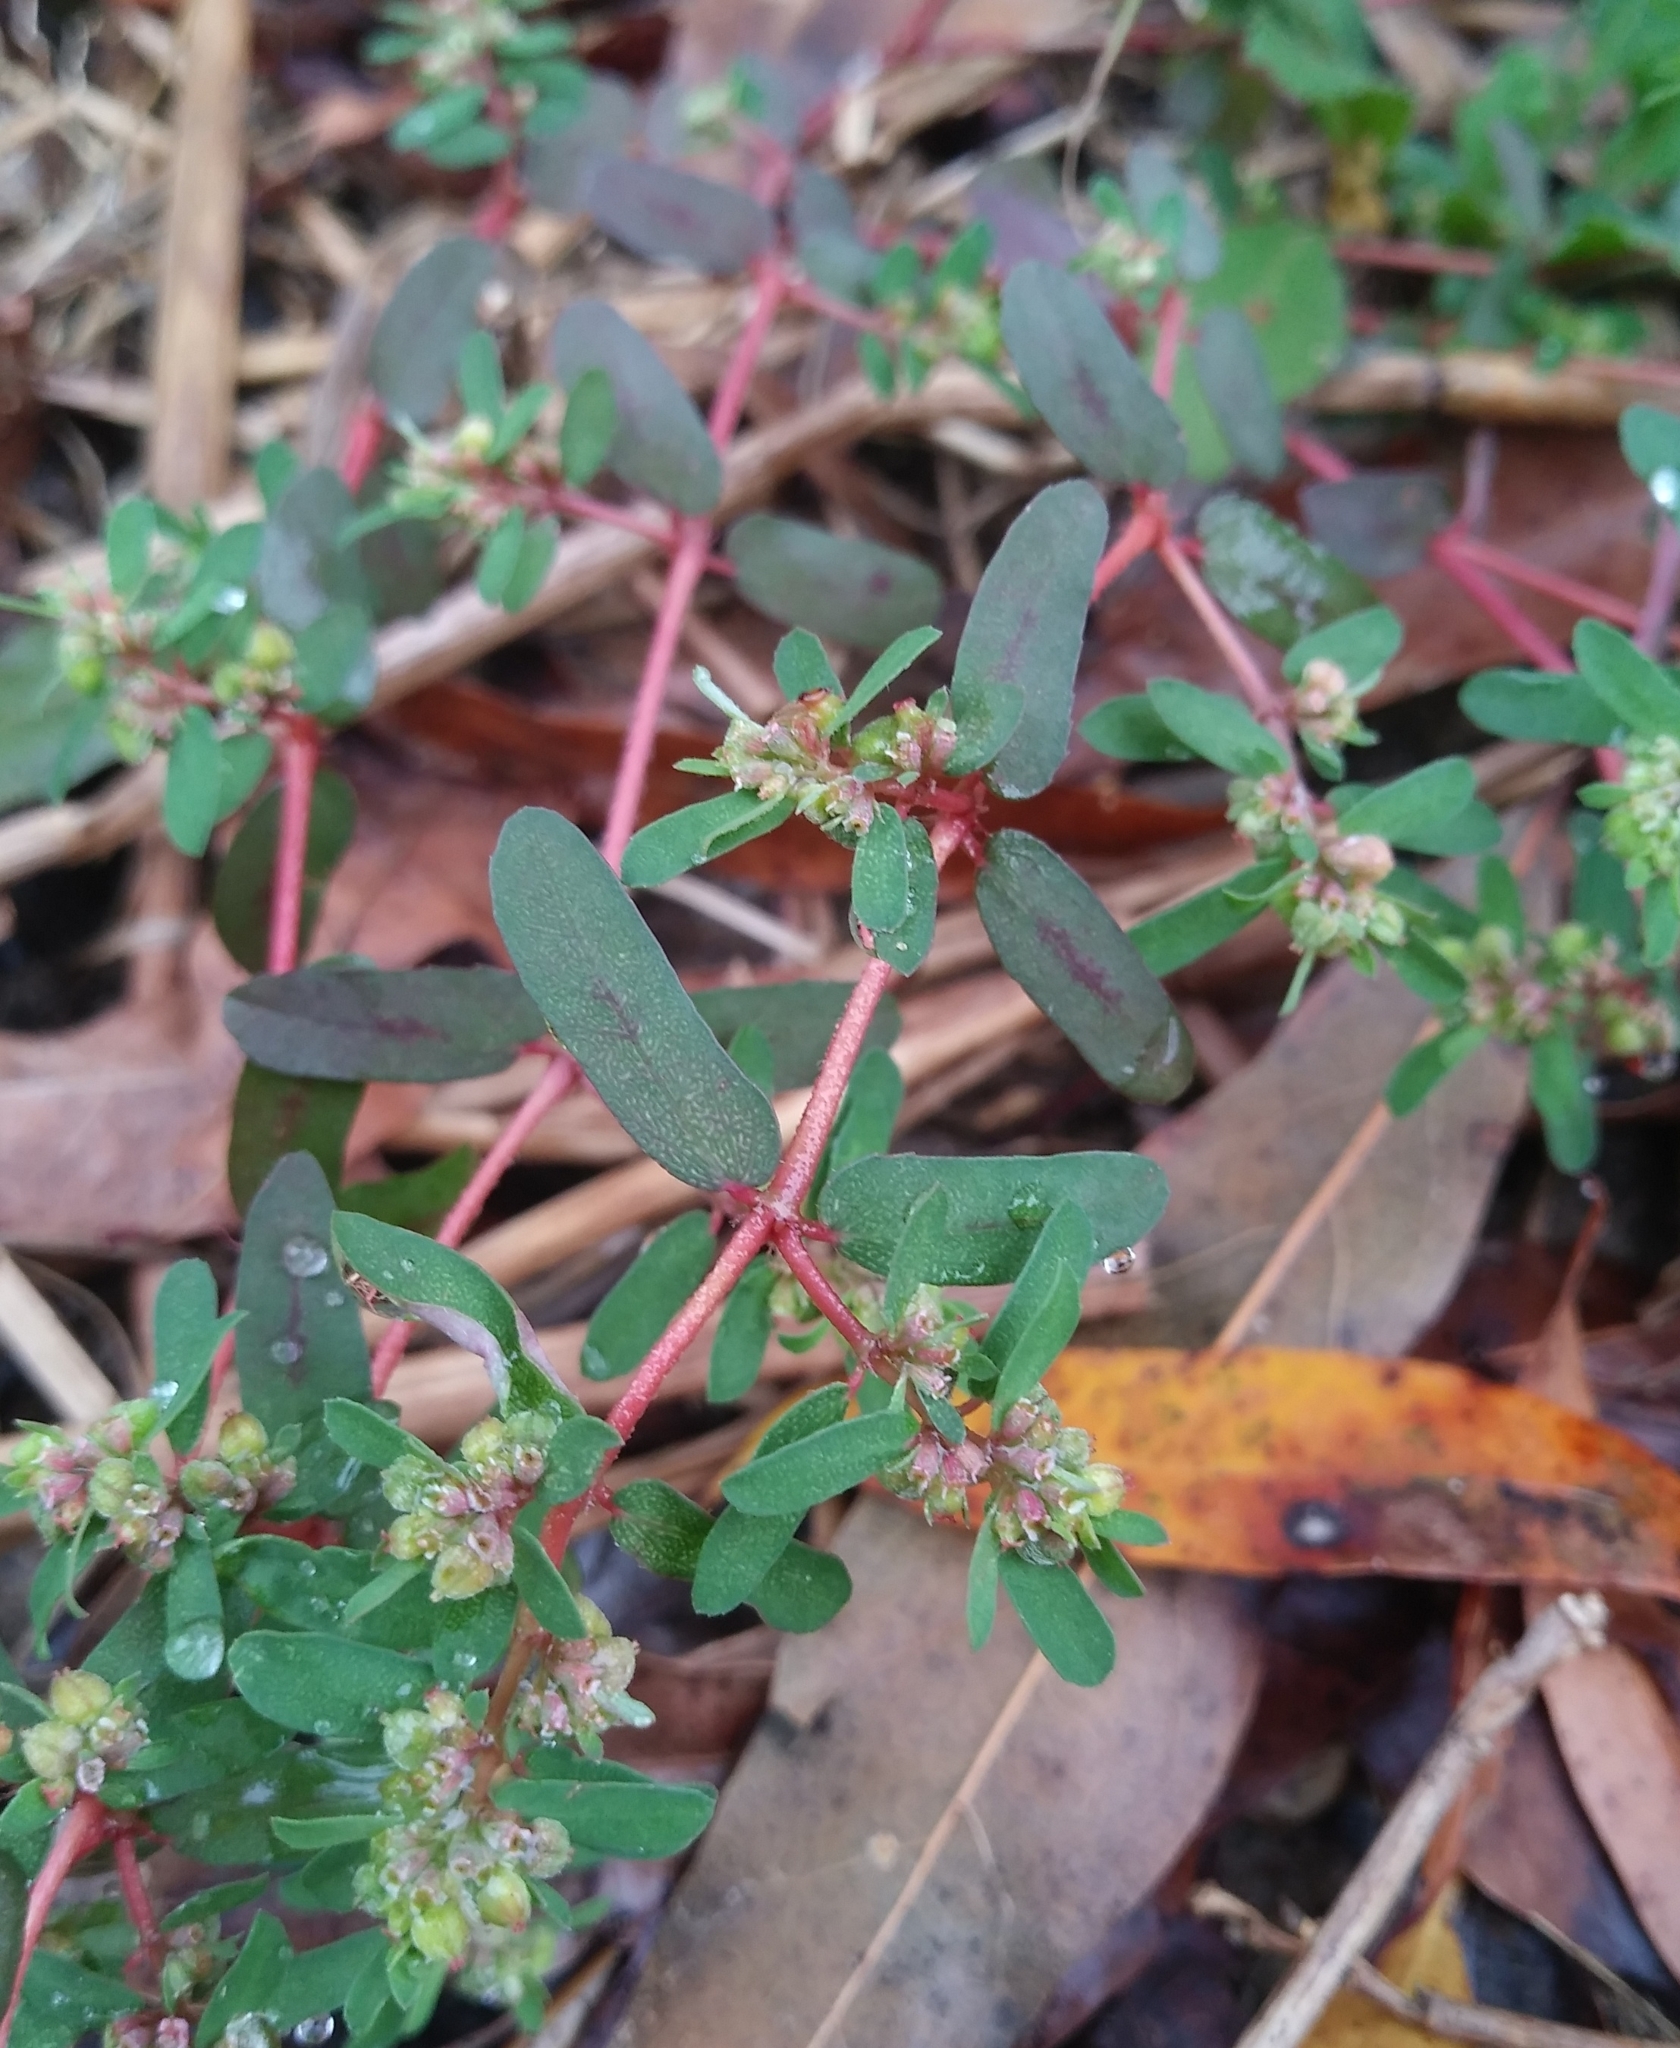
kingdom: Plantae
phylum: Tracheophyta
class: Magnoliopsida
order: Malpighiales
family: Euphorbiaceae
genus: Euphorbia
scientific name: Euphorbia maculata
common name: Spotted spurge
